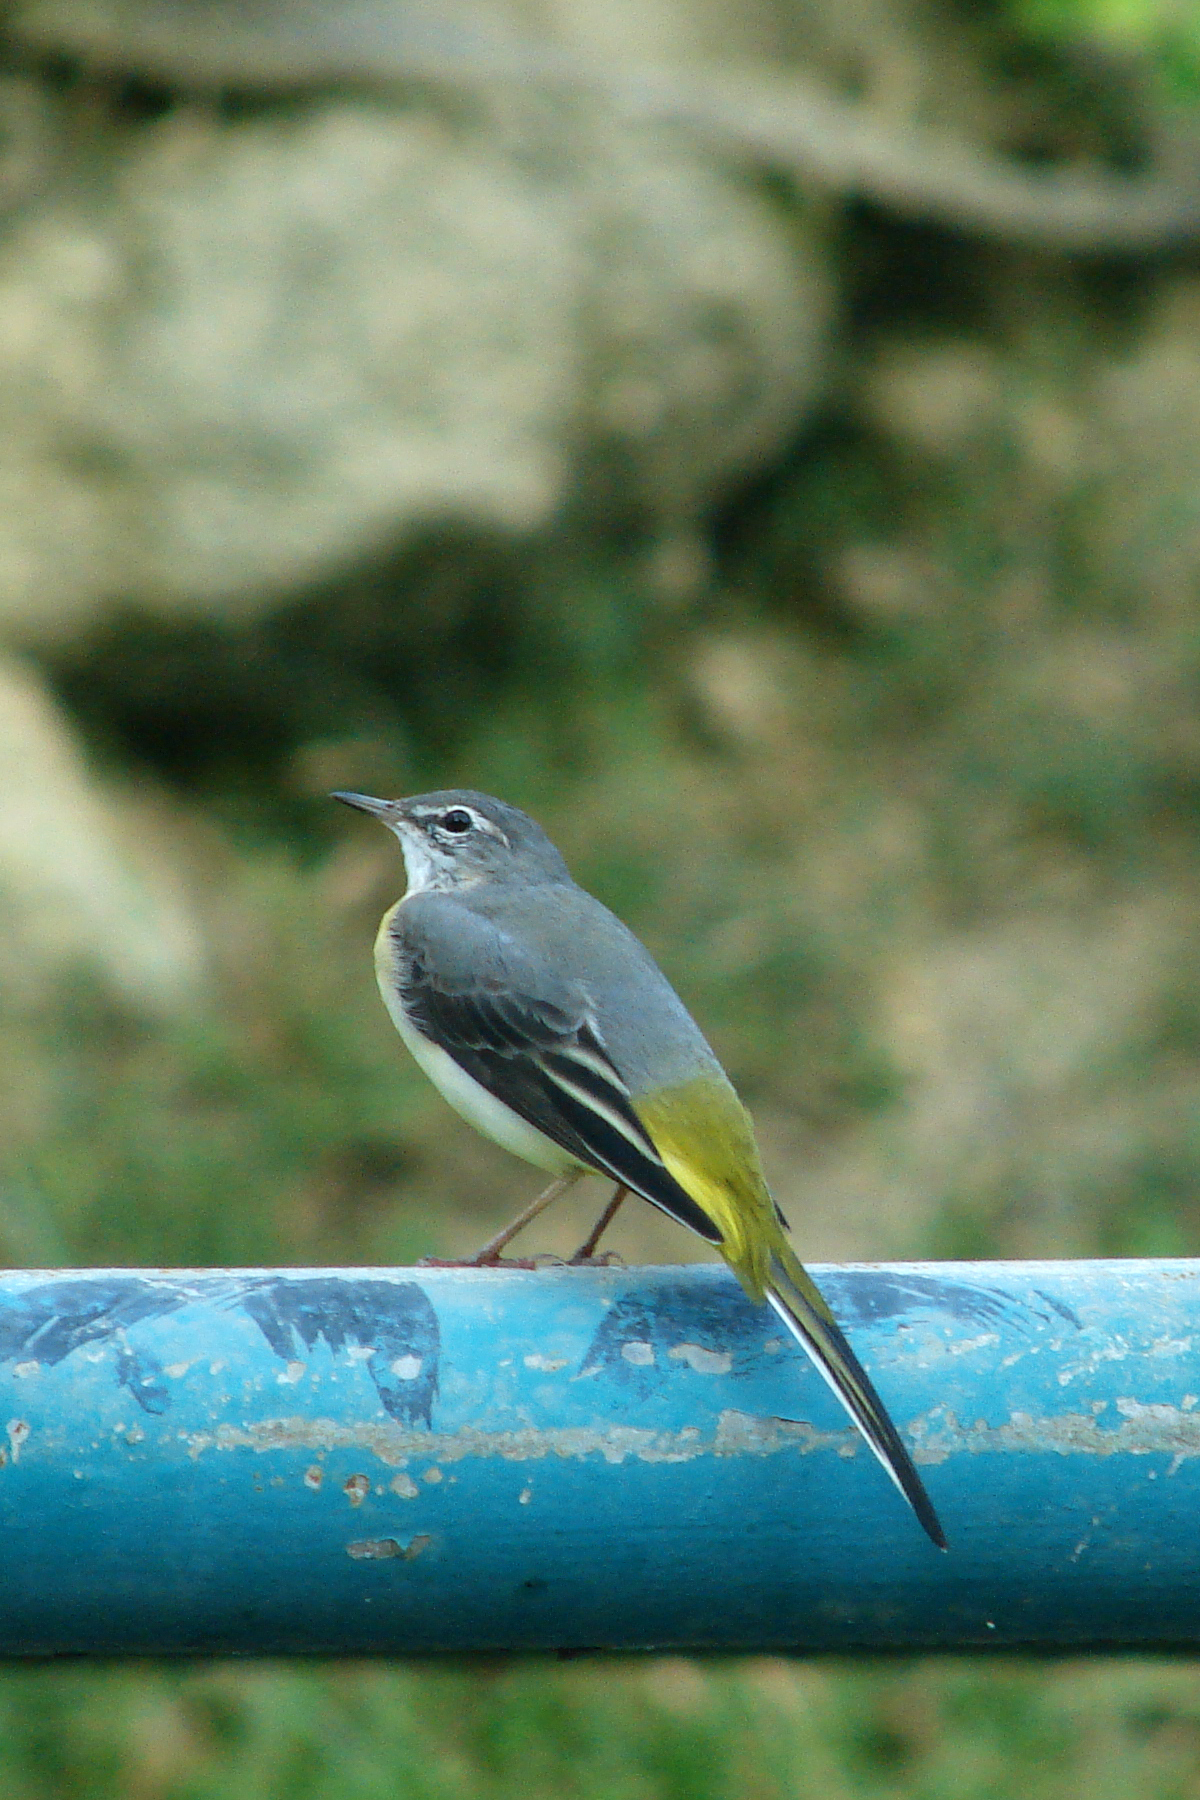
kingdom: Animalia
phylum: Chordata
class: Aves
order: Passeriformes
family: Motacillidae
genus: Motacilla
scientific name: Motacilla cinerea
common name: Grey wagtail
